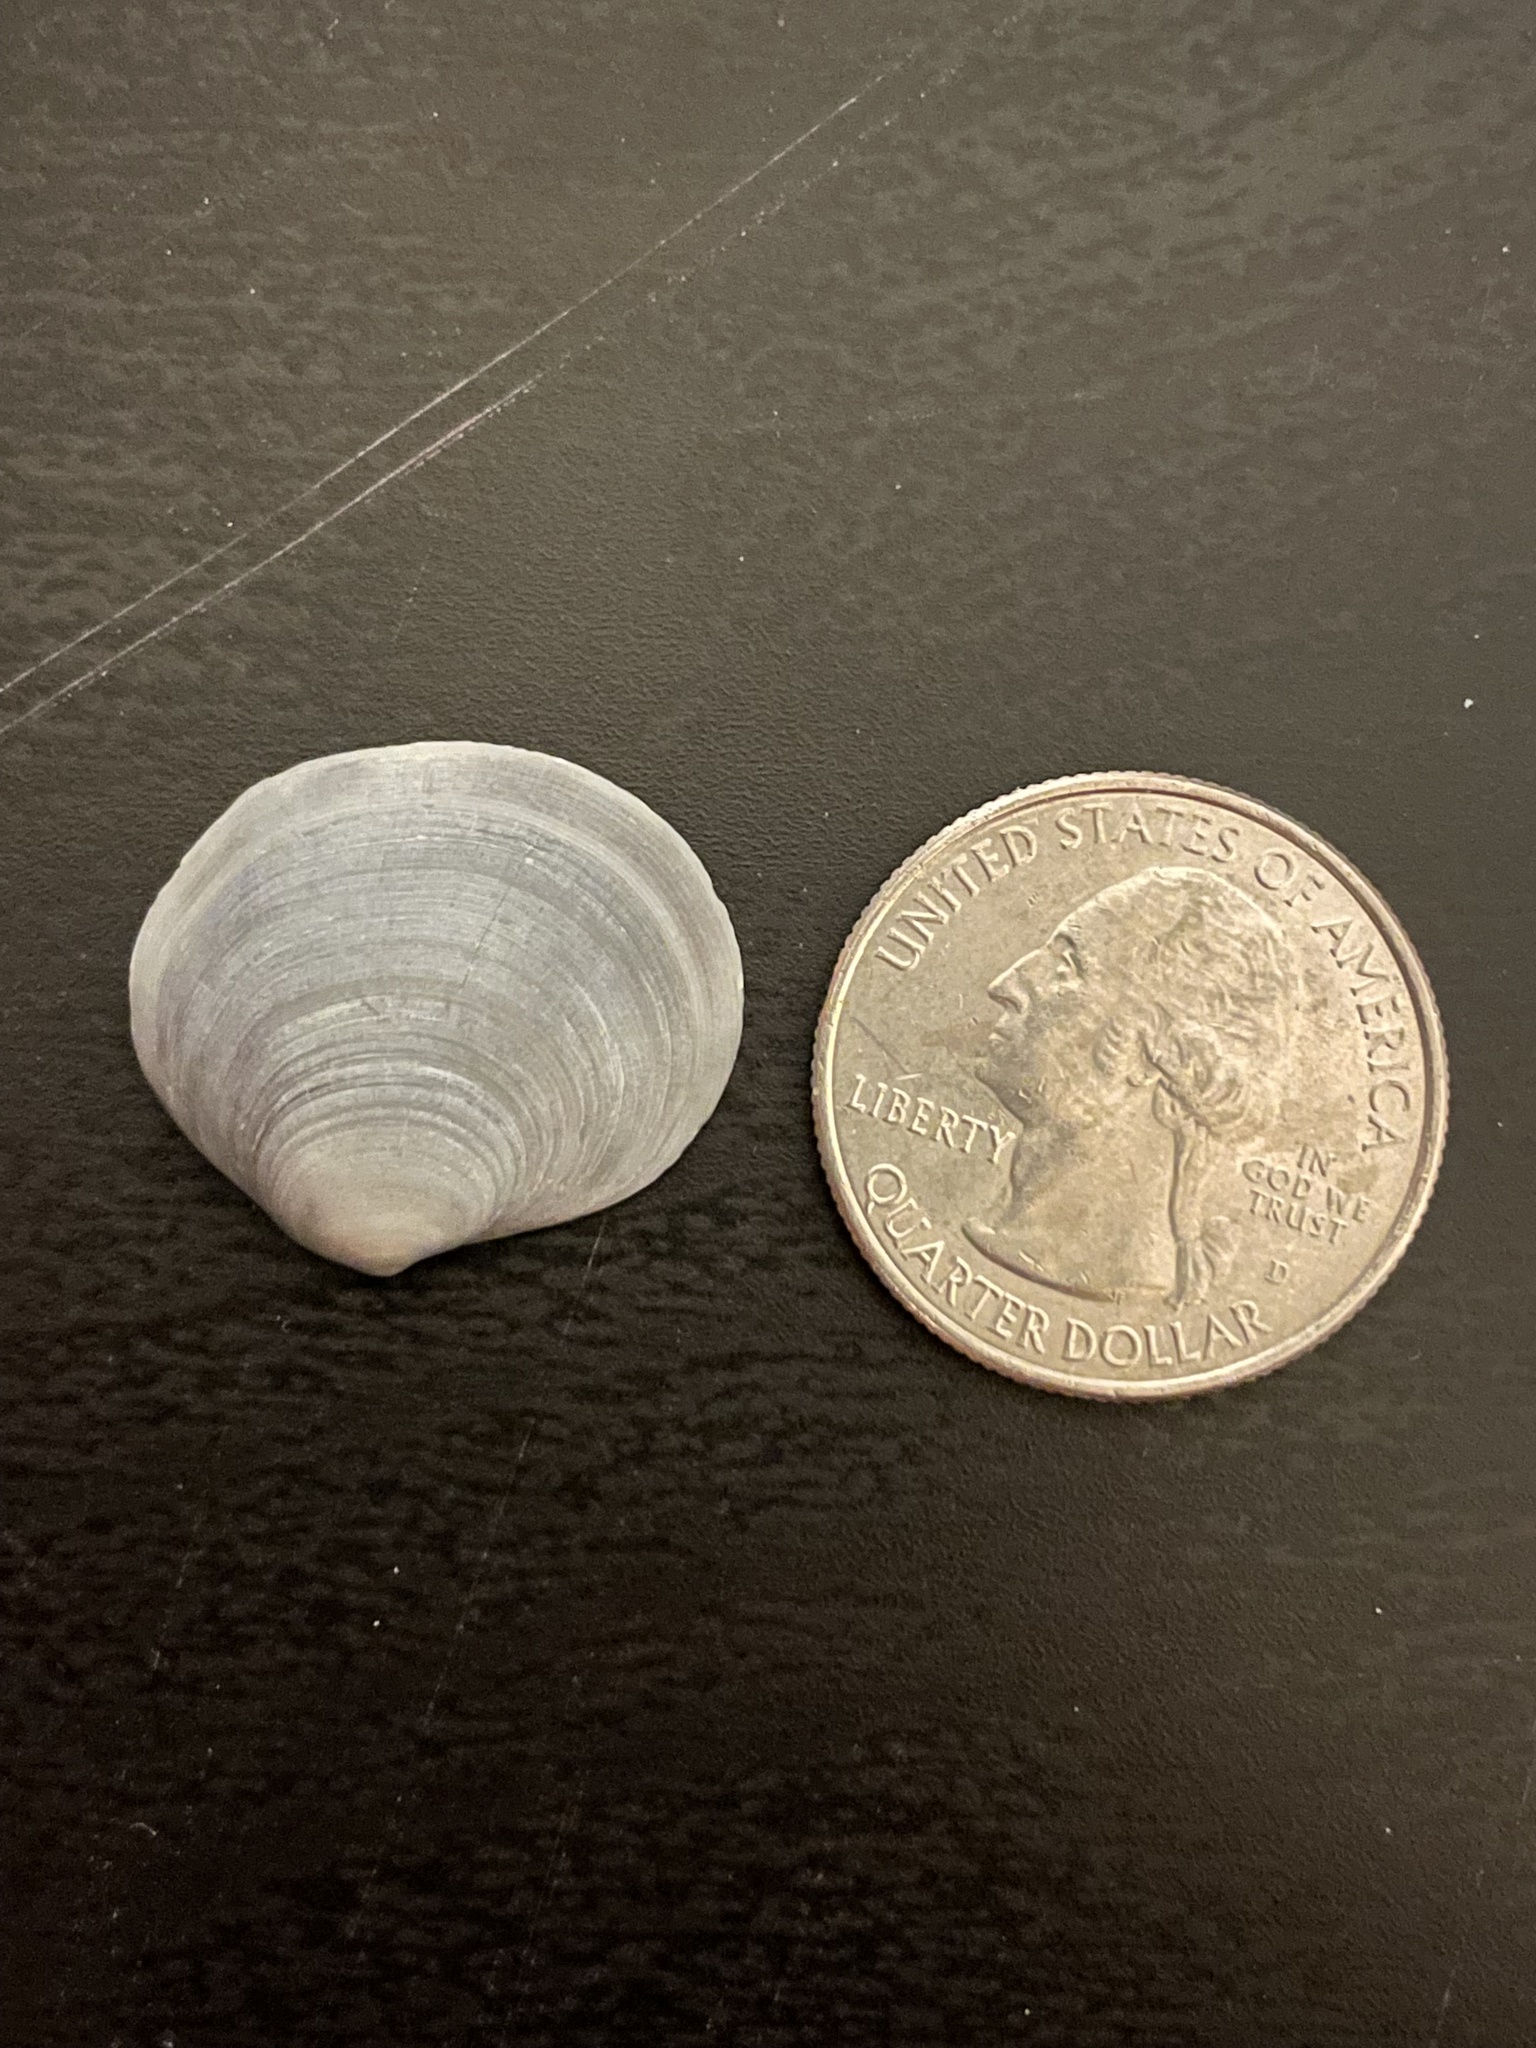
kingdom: Animalia
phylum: Mollusca
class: Bivalvia
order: Cardiida
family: Semelidae
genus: Semele
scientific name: Semele proficua
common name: White atlantic semele
